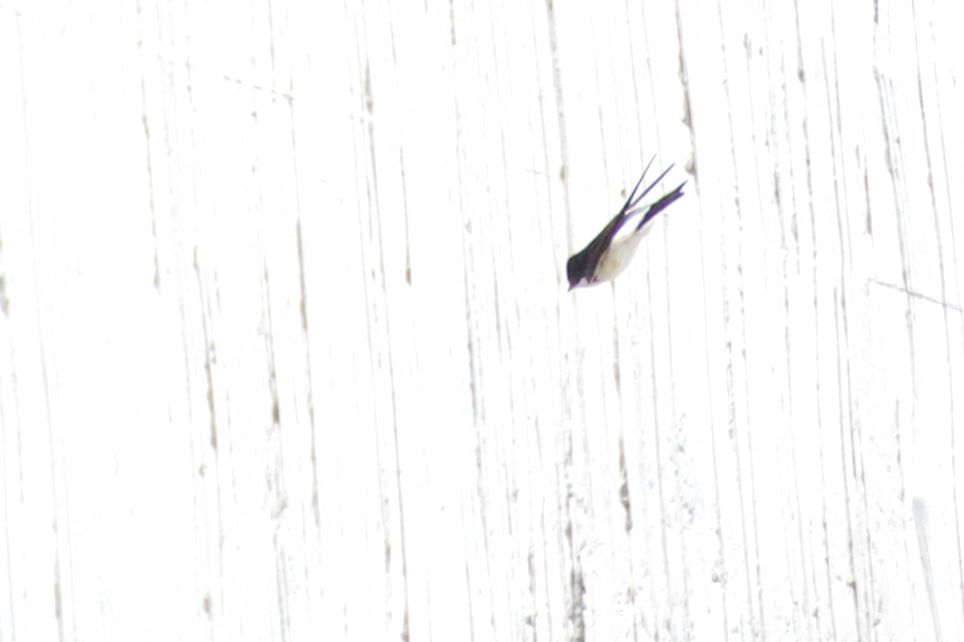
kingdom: Animalia
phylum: Chordata
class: Aves
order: Passeriformes
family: Hirundinidae
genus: Delichon
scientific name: Delichon urbicum
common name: Common house martin
